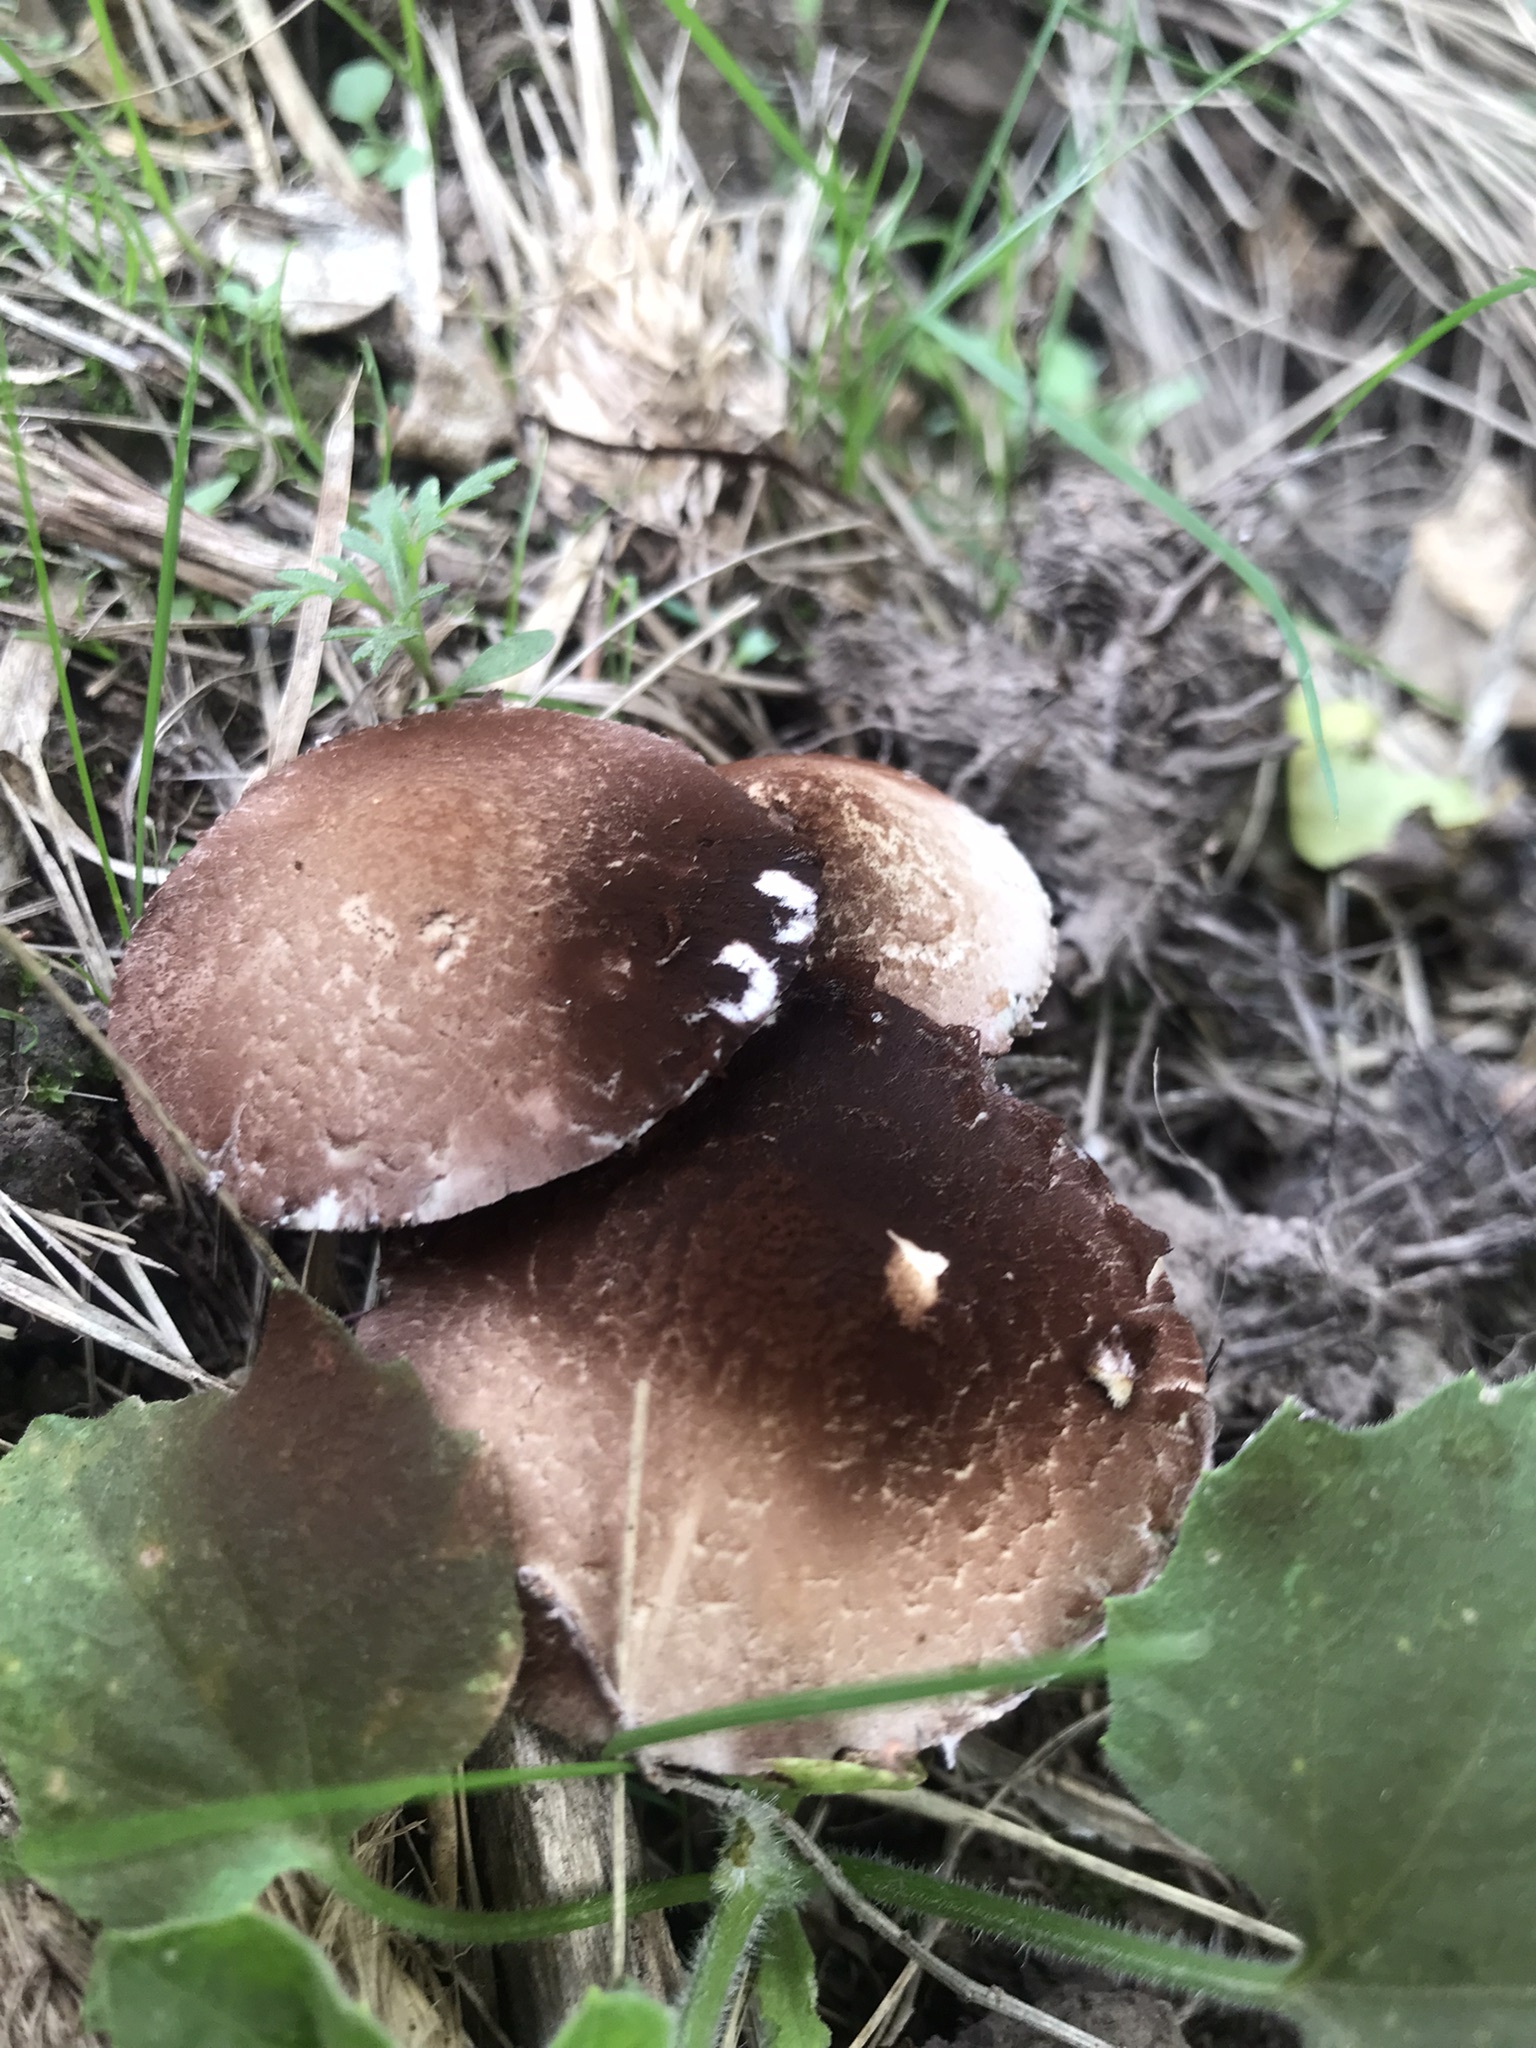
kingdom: Fungi
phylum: Basidiomycota
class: Agaricomycetes
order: Agaricales
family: Psathyrellaceae
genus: Candolleomyces
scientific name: Candolleomyces candolleanus
